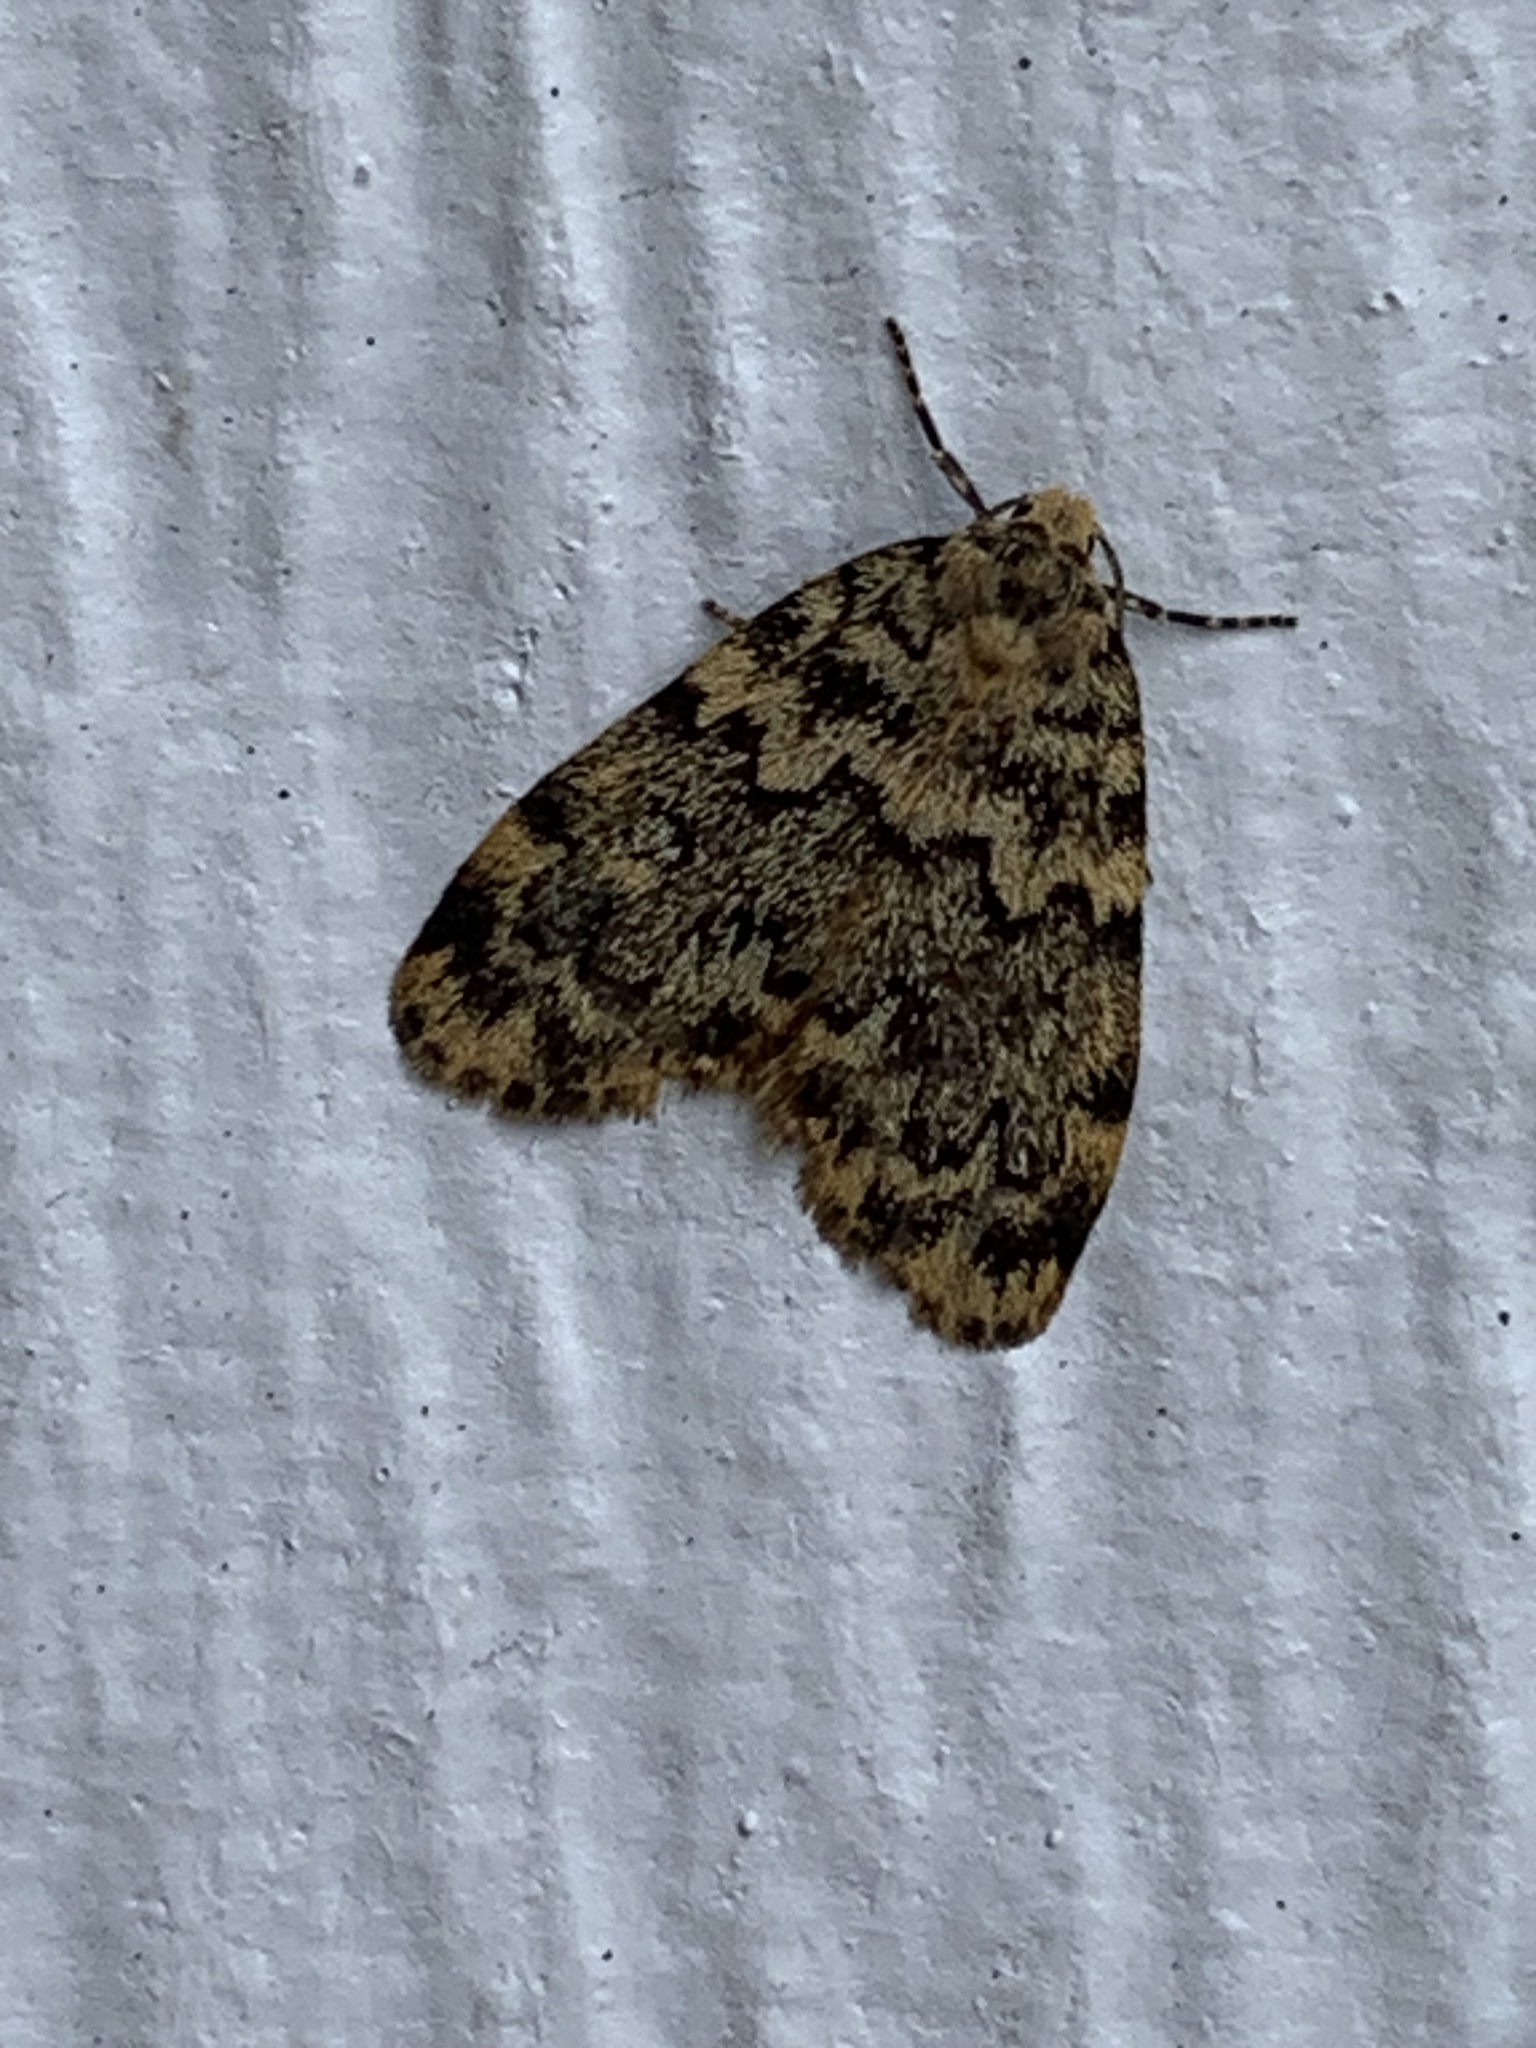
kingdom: Animalia
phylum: Arthropoda
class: Insecta
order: Lepidoptera
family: Erebidae
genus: Halone
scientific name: Halone ophiodes
